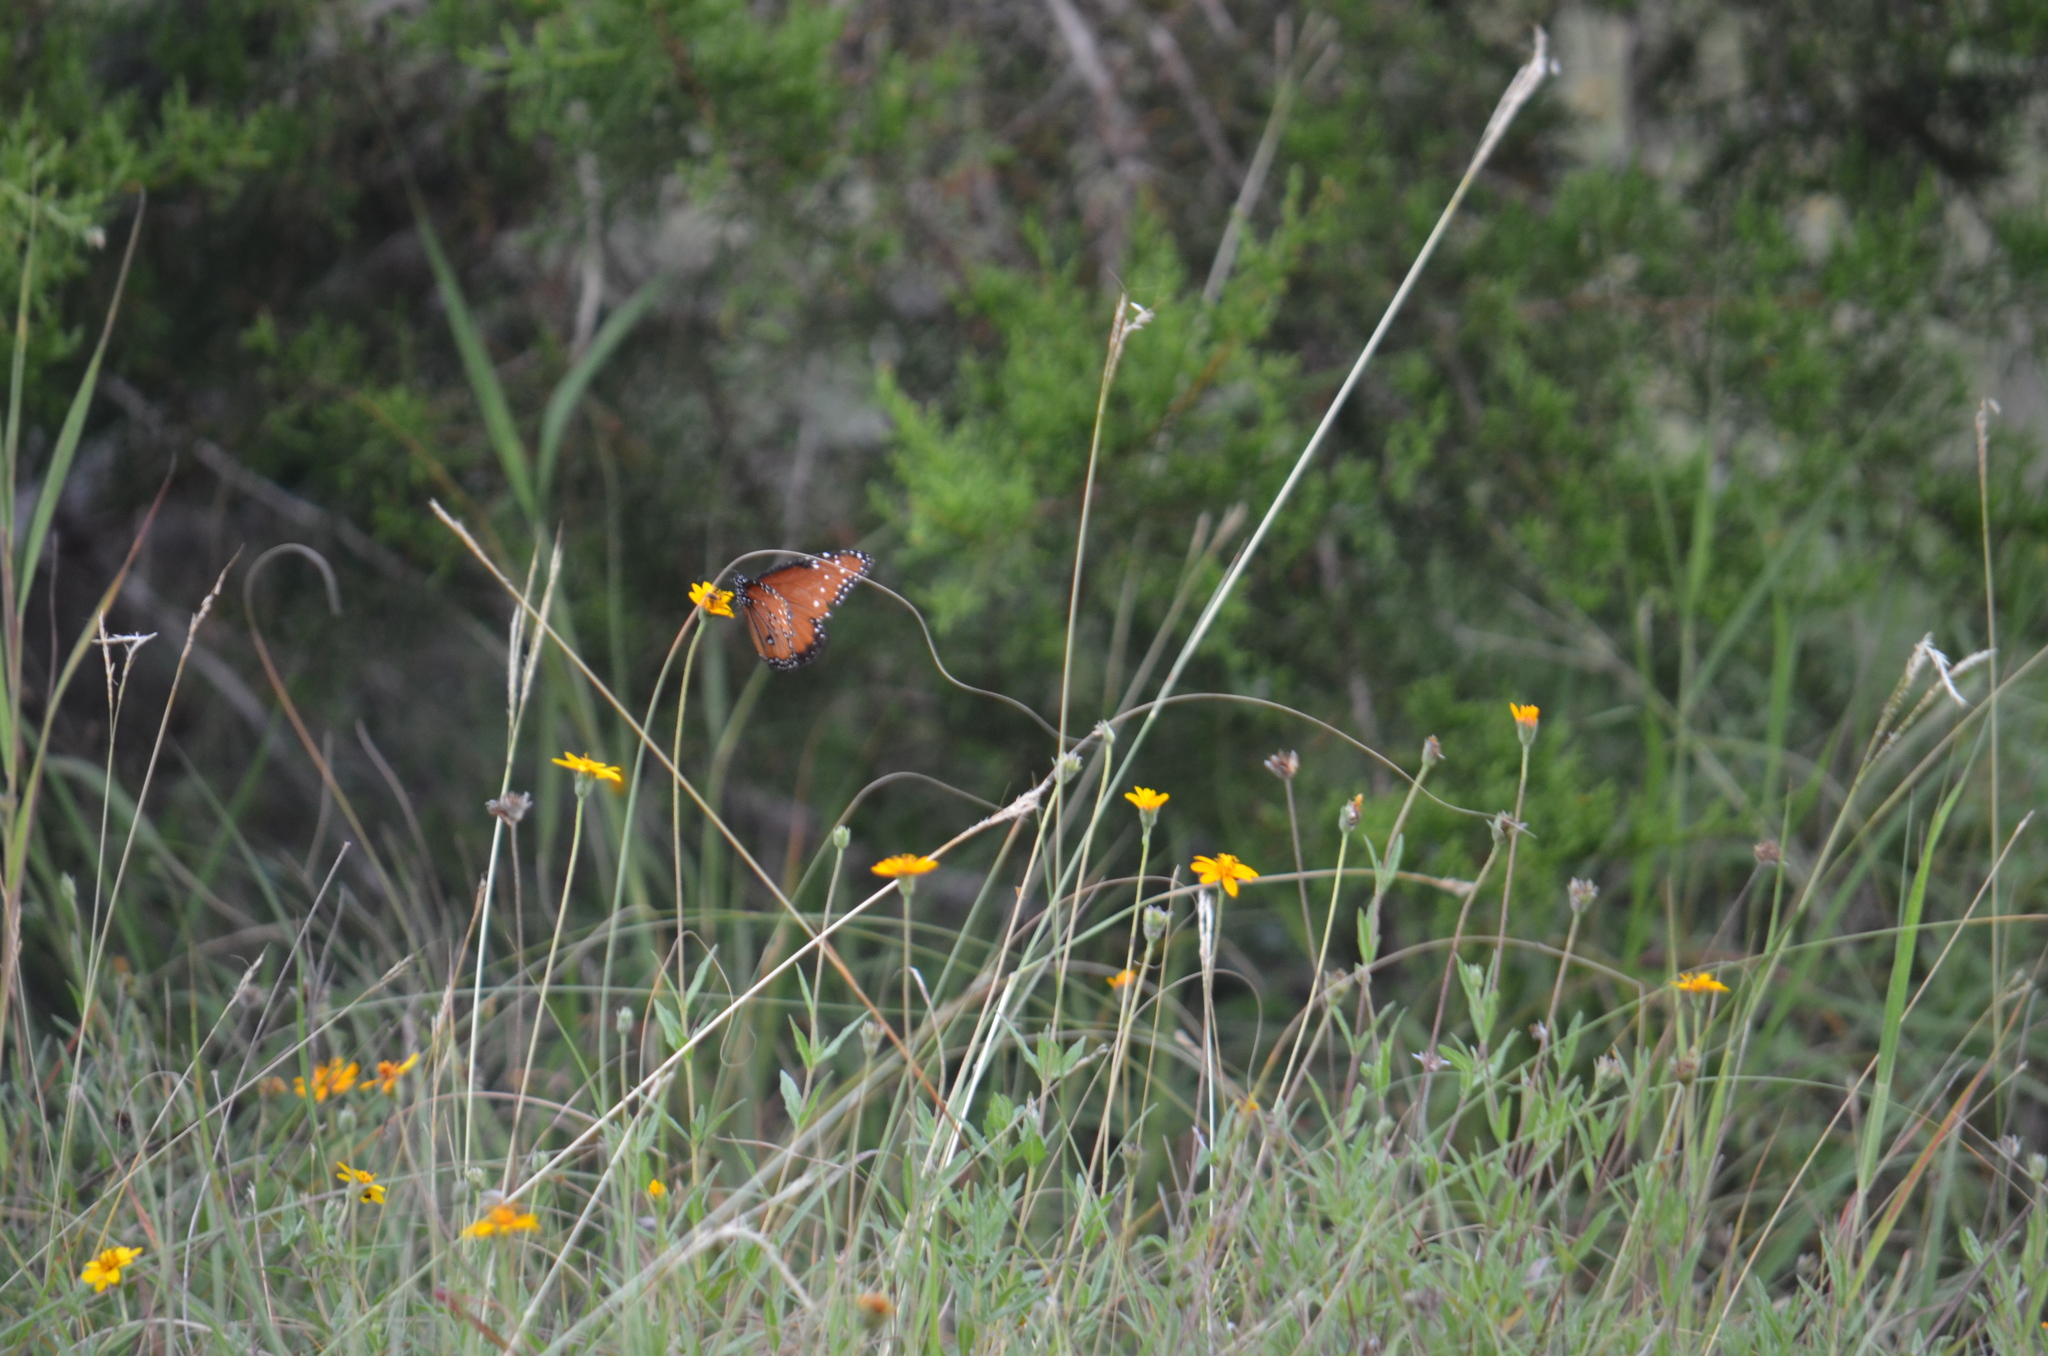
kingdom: Animalia
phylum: Arthropoda
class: Insecta
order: Lepidoptera
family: Nymphalidae
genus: Danaus
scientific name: Danaus gilippus
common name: Queen
